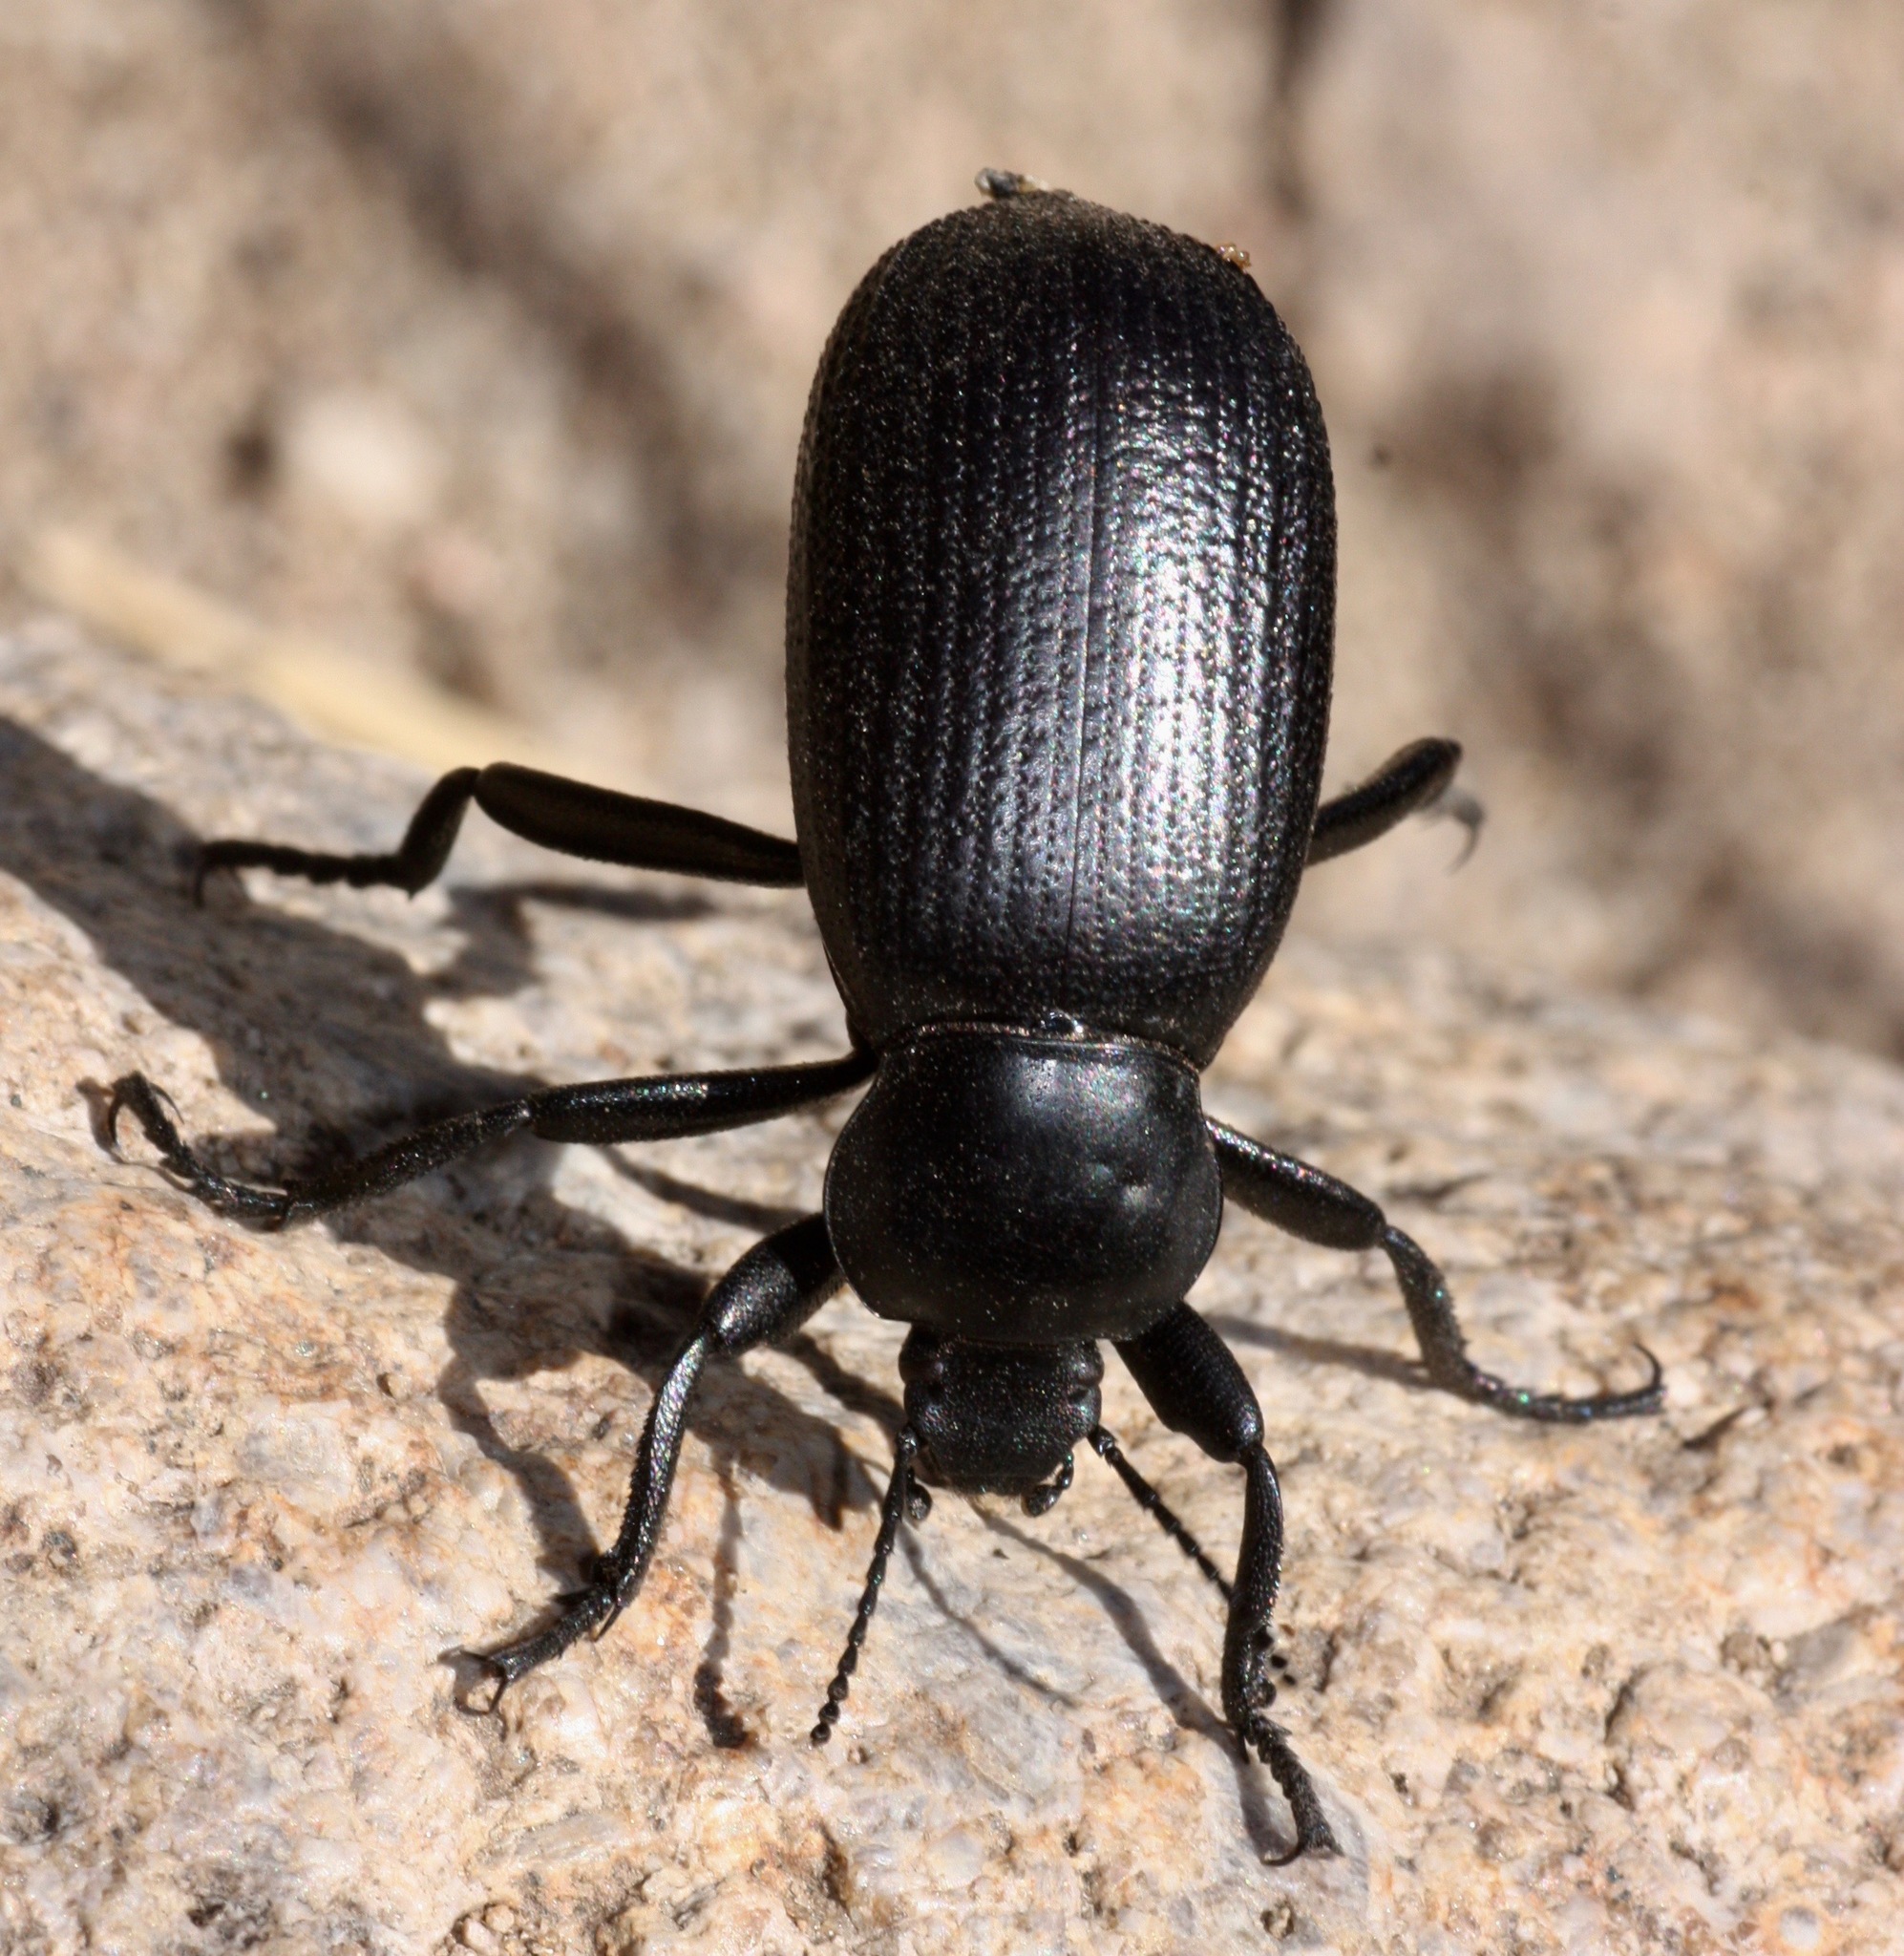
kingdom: Animalia
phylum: Arthropoda
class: Insecta
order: Coleoptera
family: Tenebrionidae
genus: Eleodes
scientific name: Eleodes obscura
